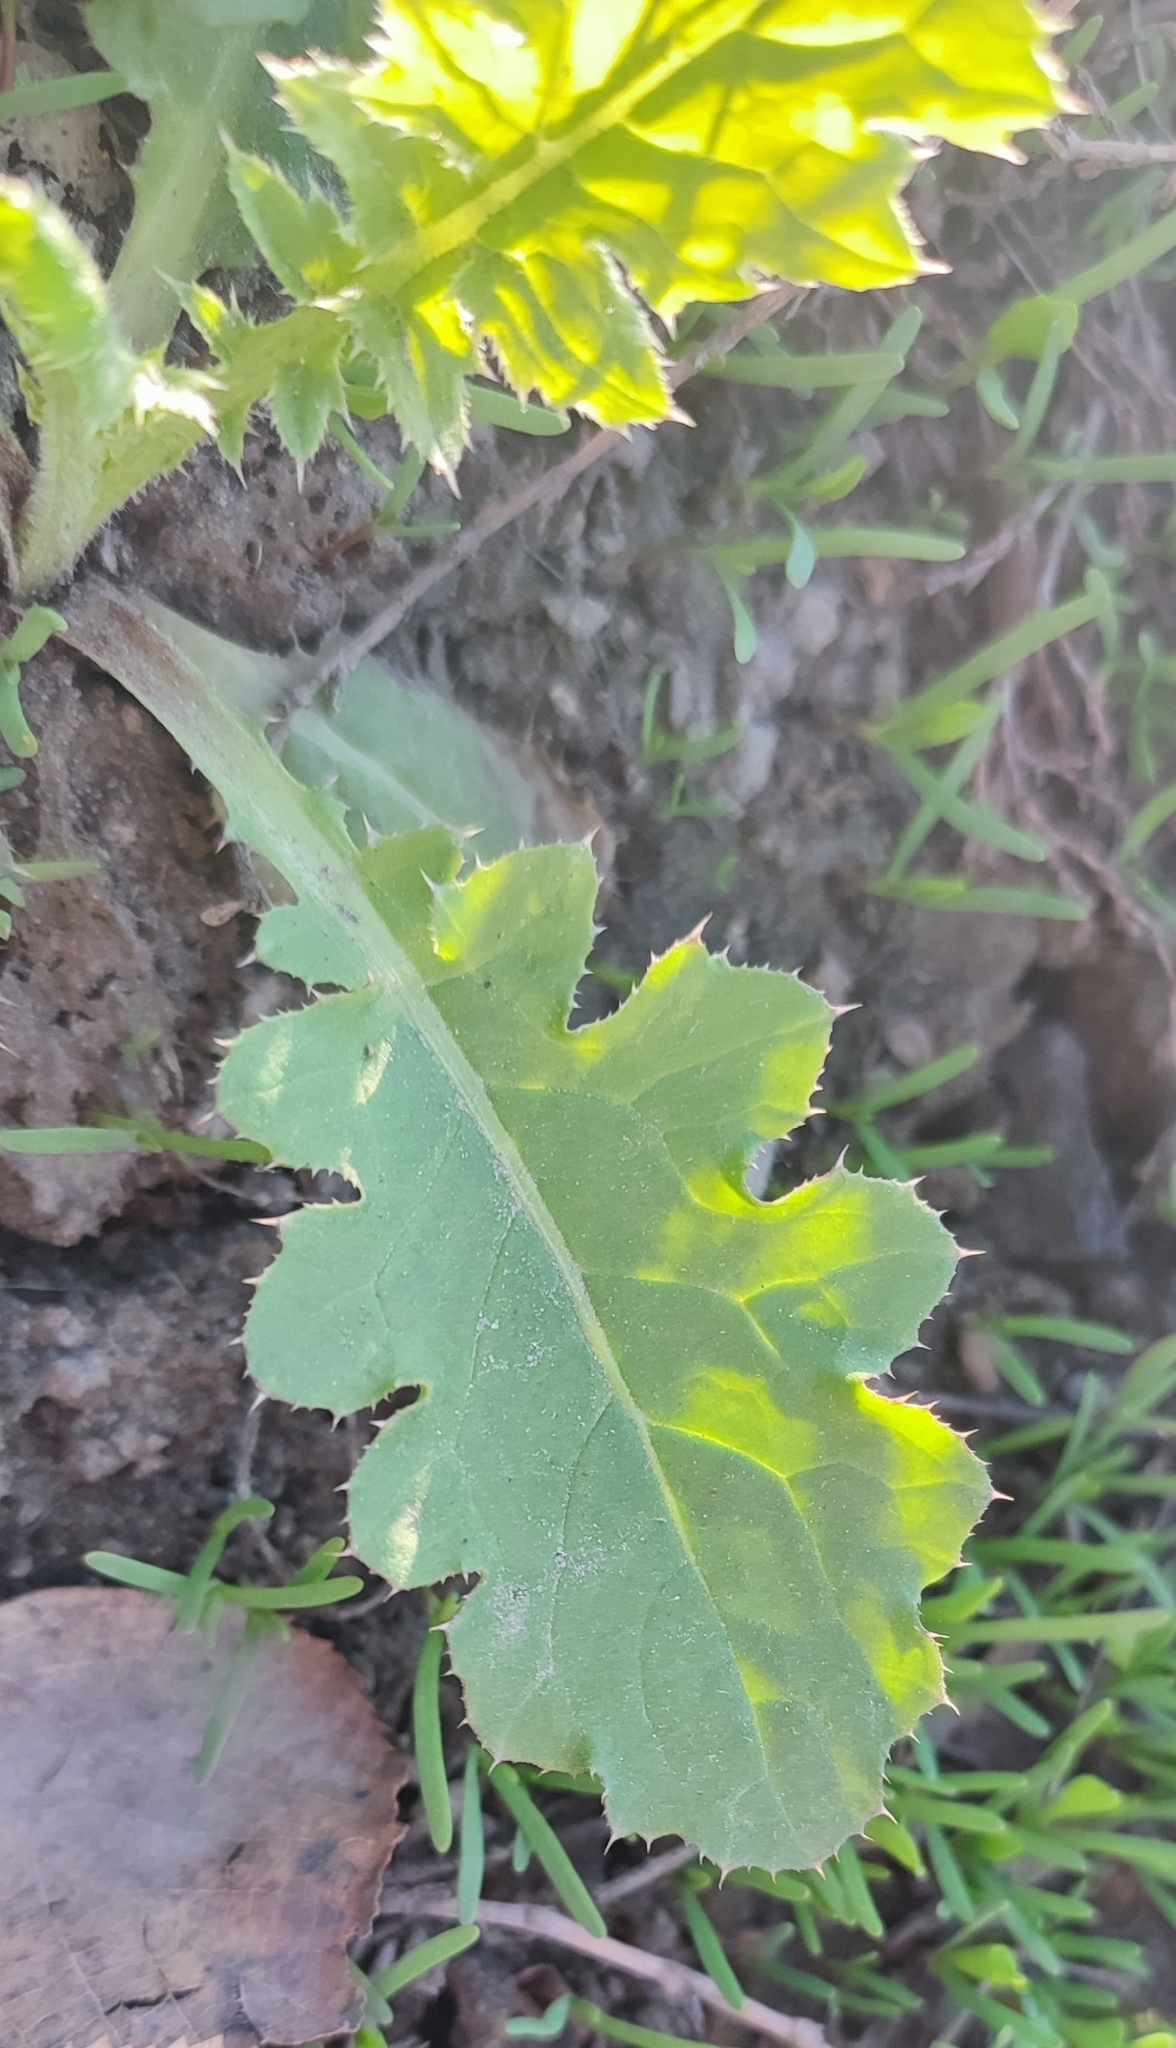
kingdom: Plantae
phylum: Tracheophyta
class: Magnoliopsida
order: Asterales
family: Asteraceae
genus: Carduus
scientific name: Carduus crispus
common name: Welted thistle
